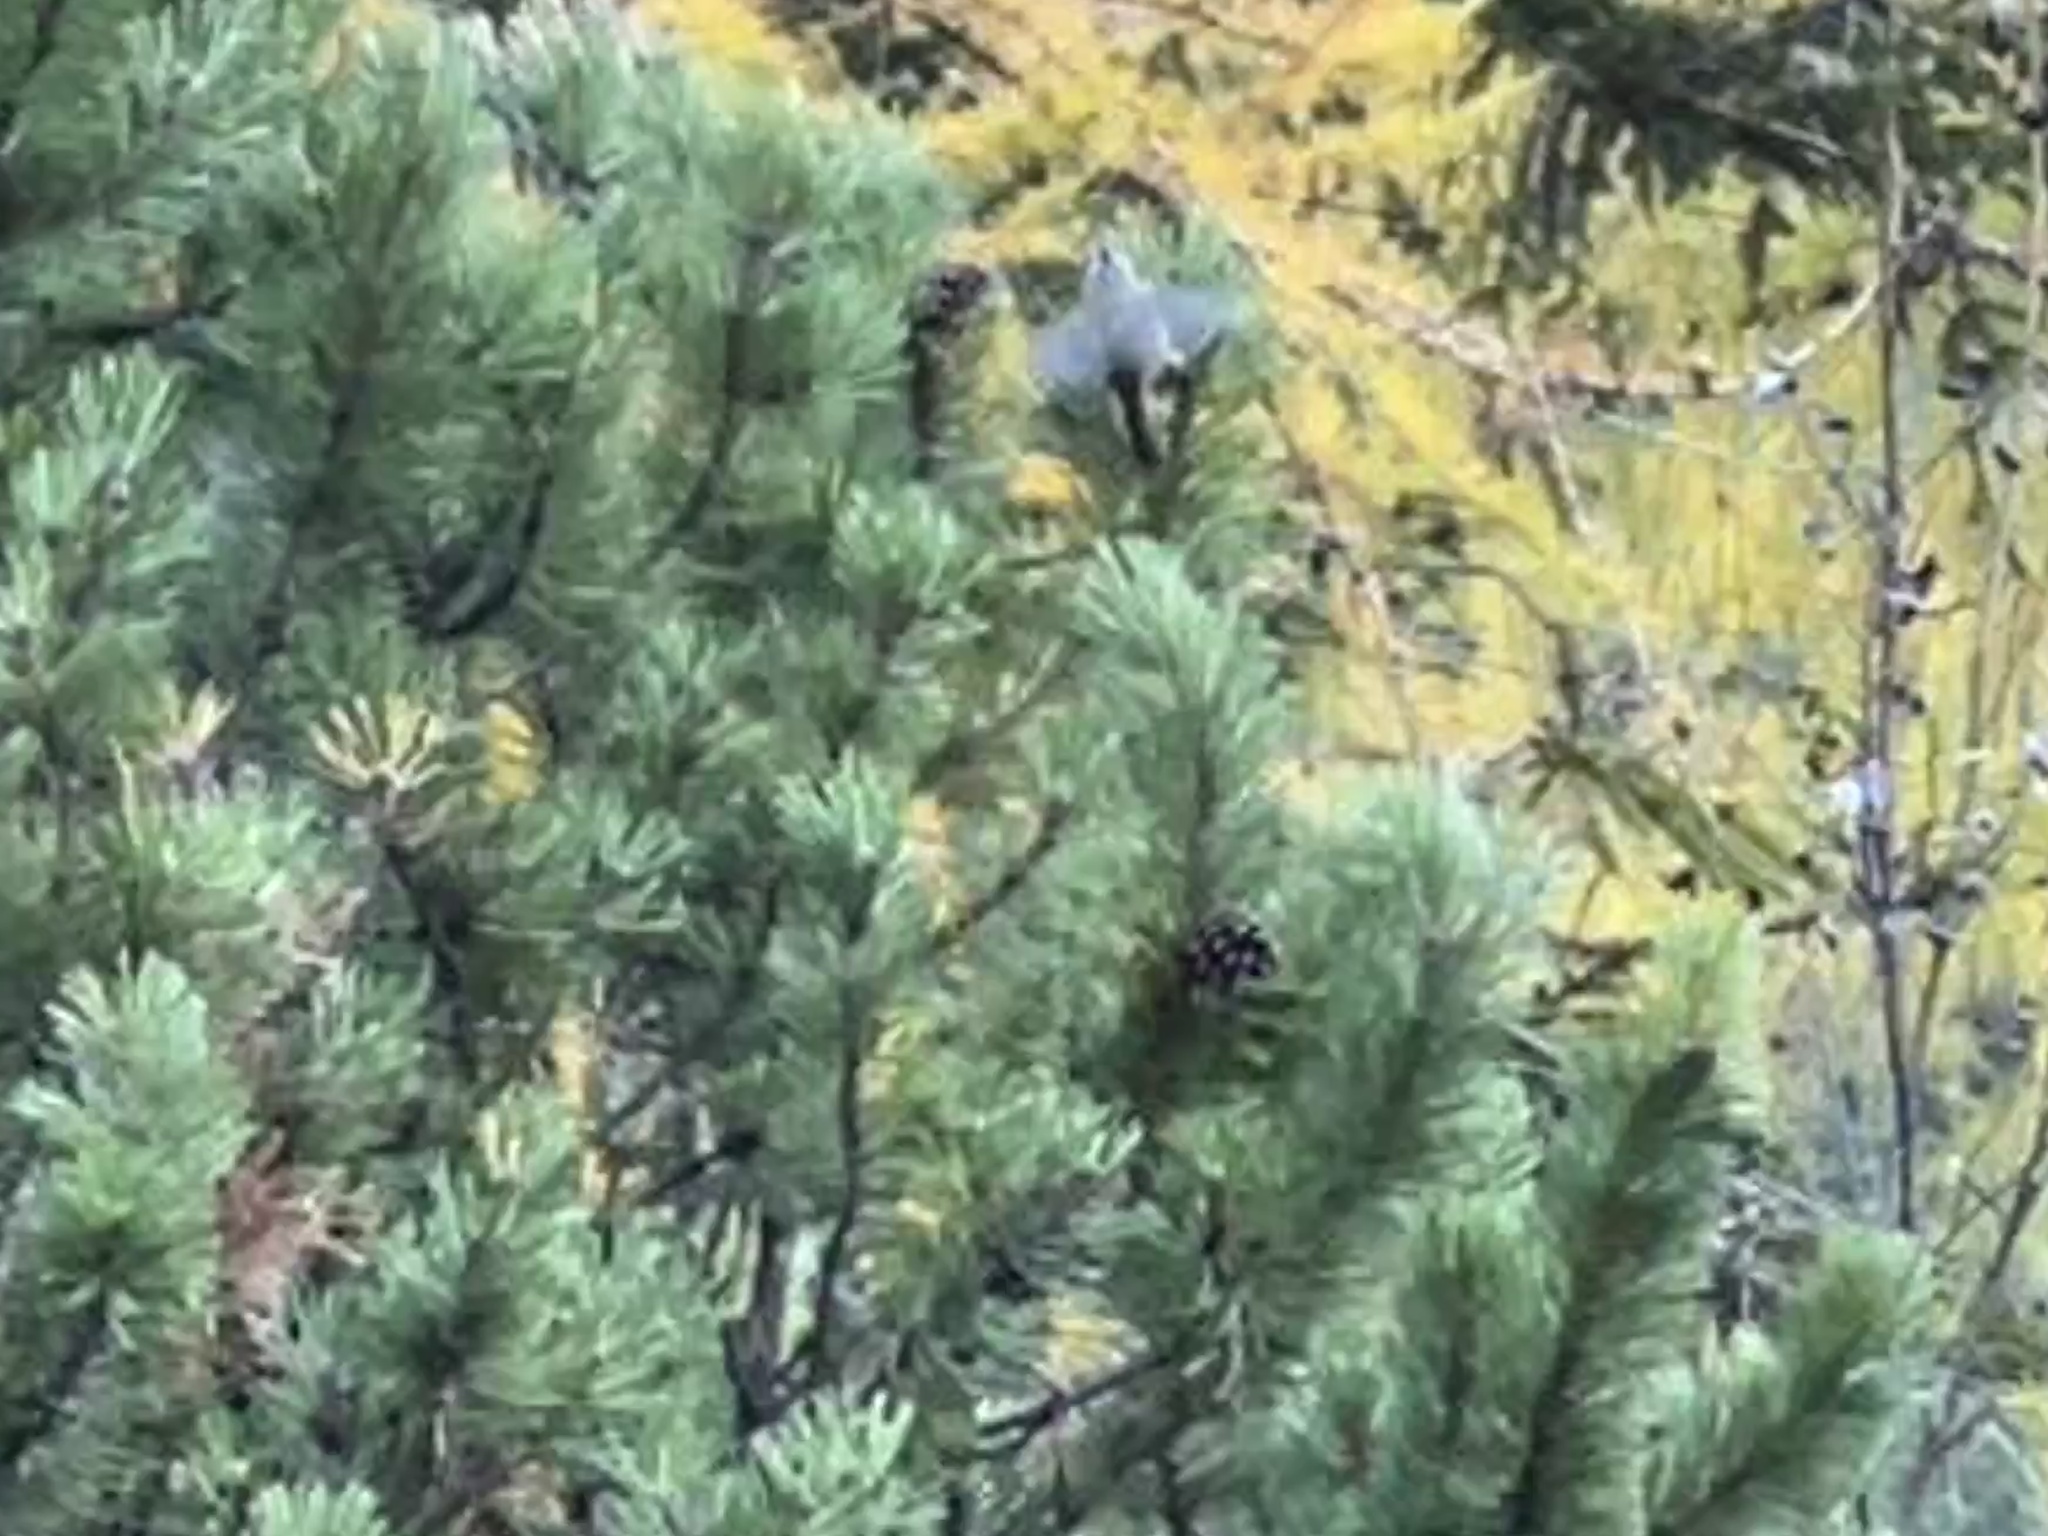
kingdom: Animalia
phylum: Chordata
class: Aves
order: Passeriformes
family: Paridae
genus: Lophophanes
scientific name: Lophophanes cristatus
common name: European crested tit
